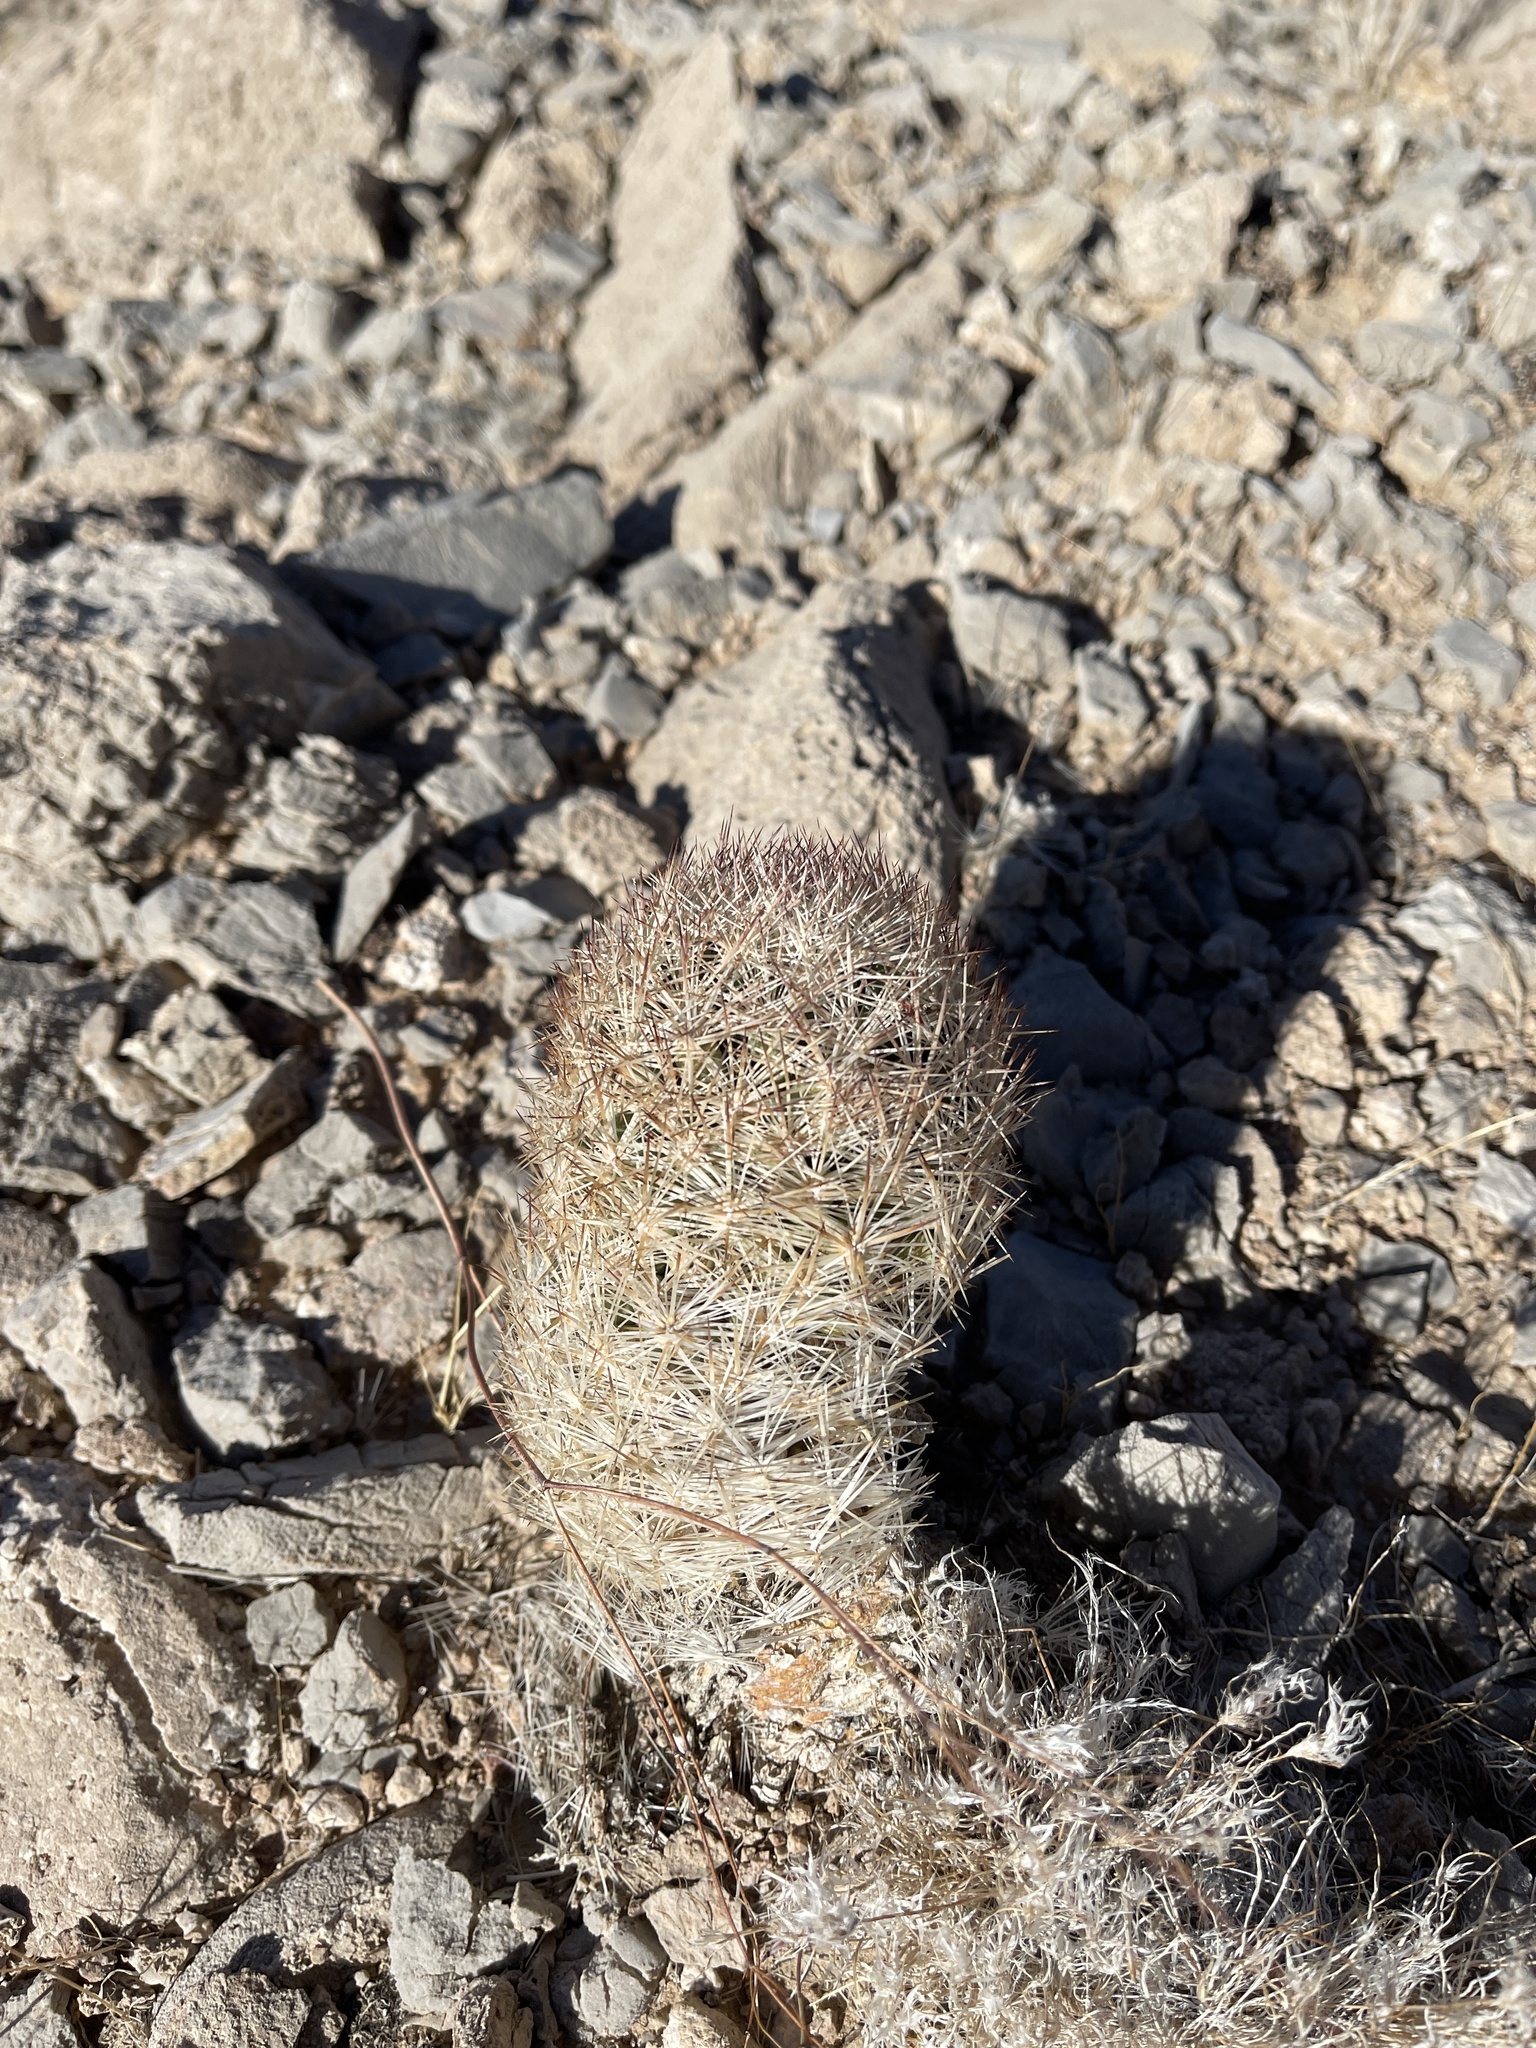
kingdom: Plantae
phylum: Tracheophyta
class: Magnoliopsida
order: Caryophyllales
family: Cactaceae
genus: Pelecyphora
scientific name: Pelecyphora dasyacantha
